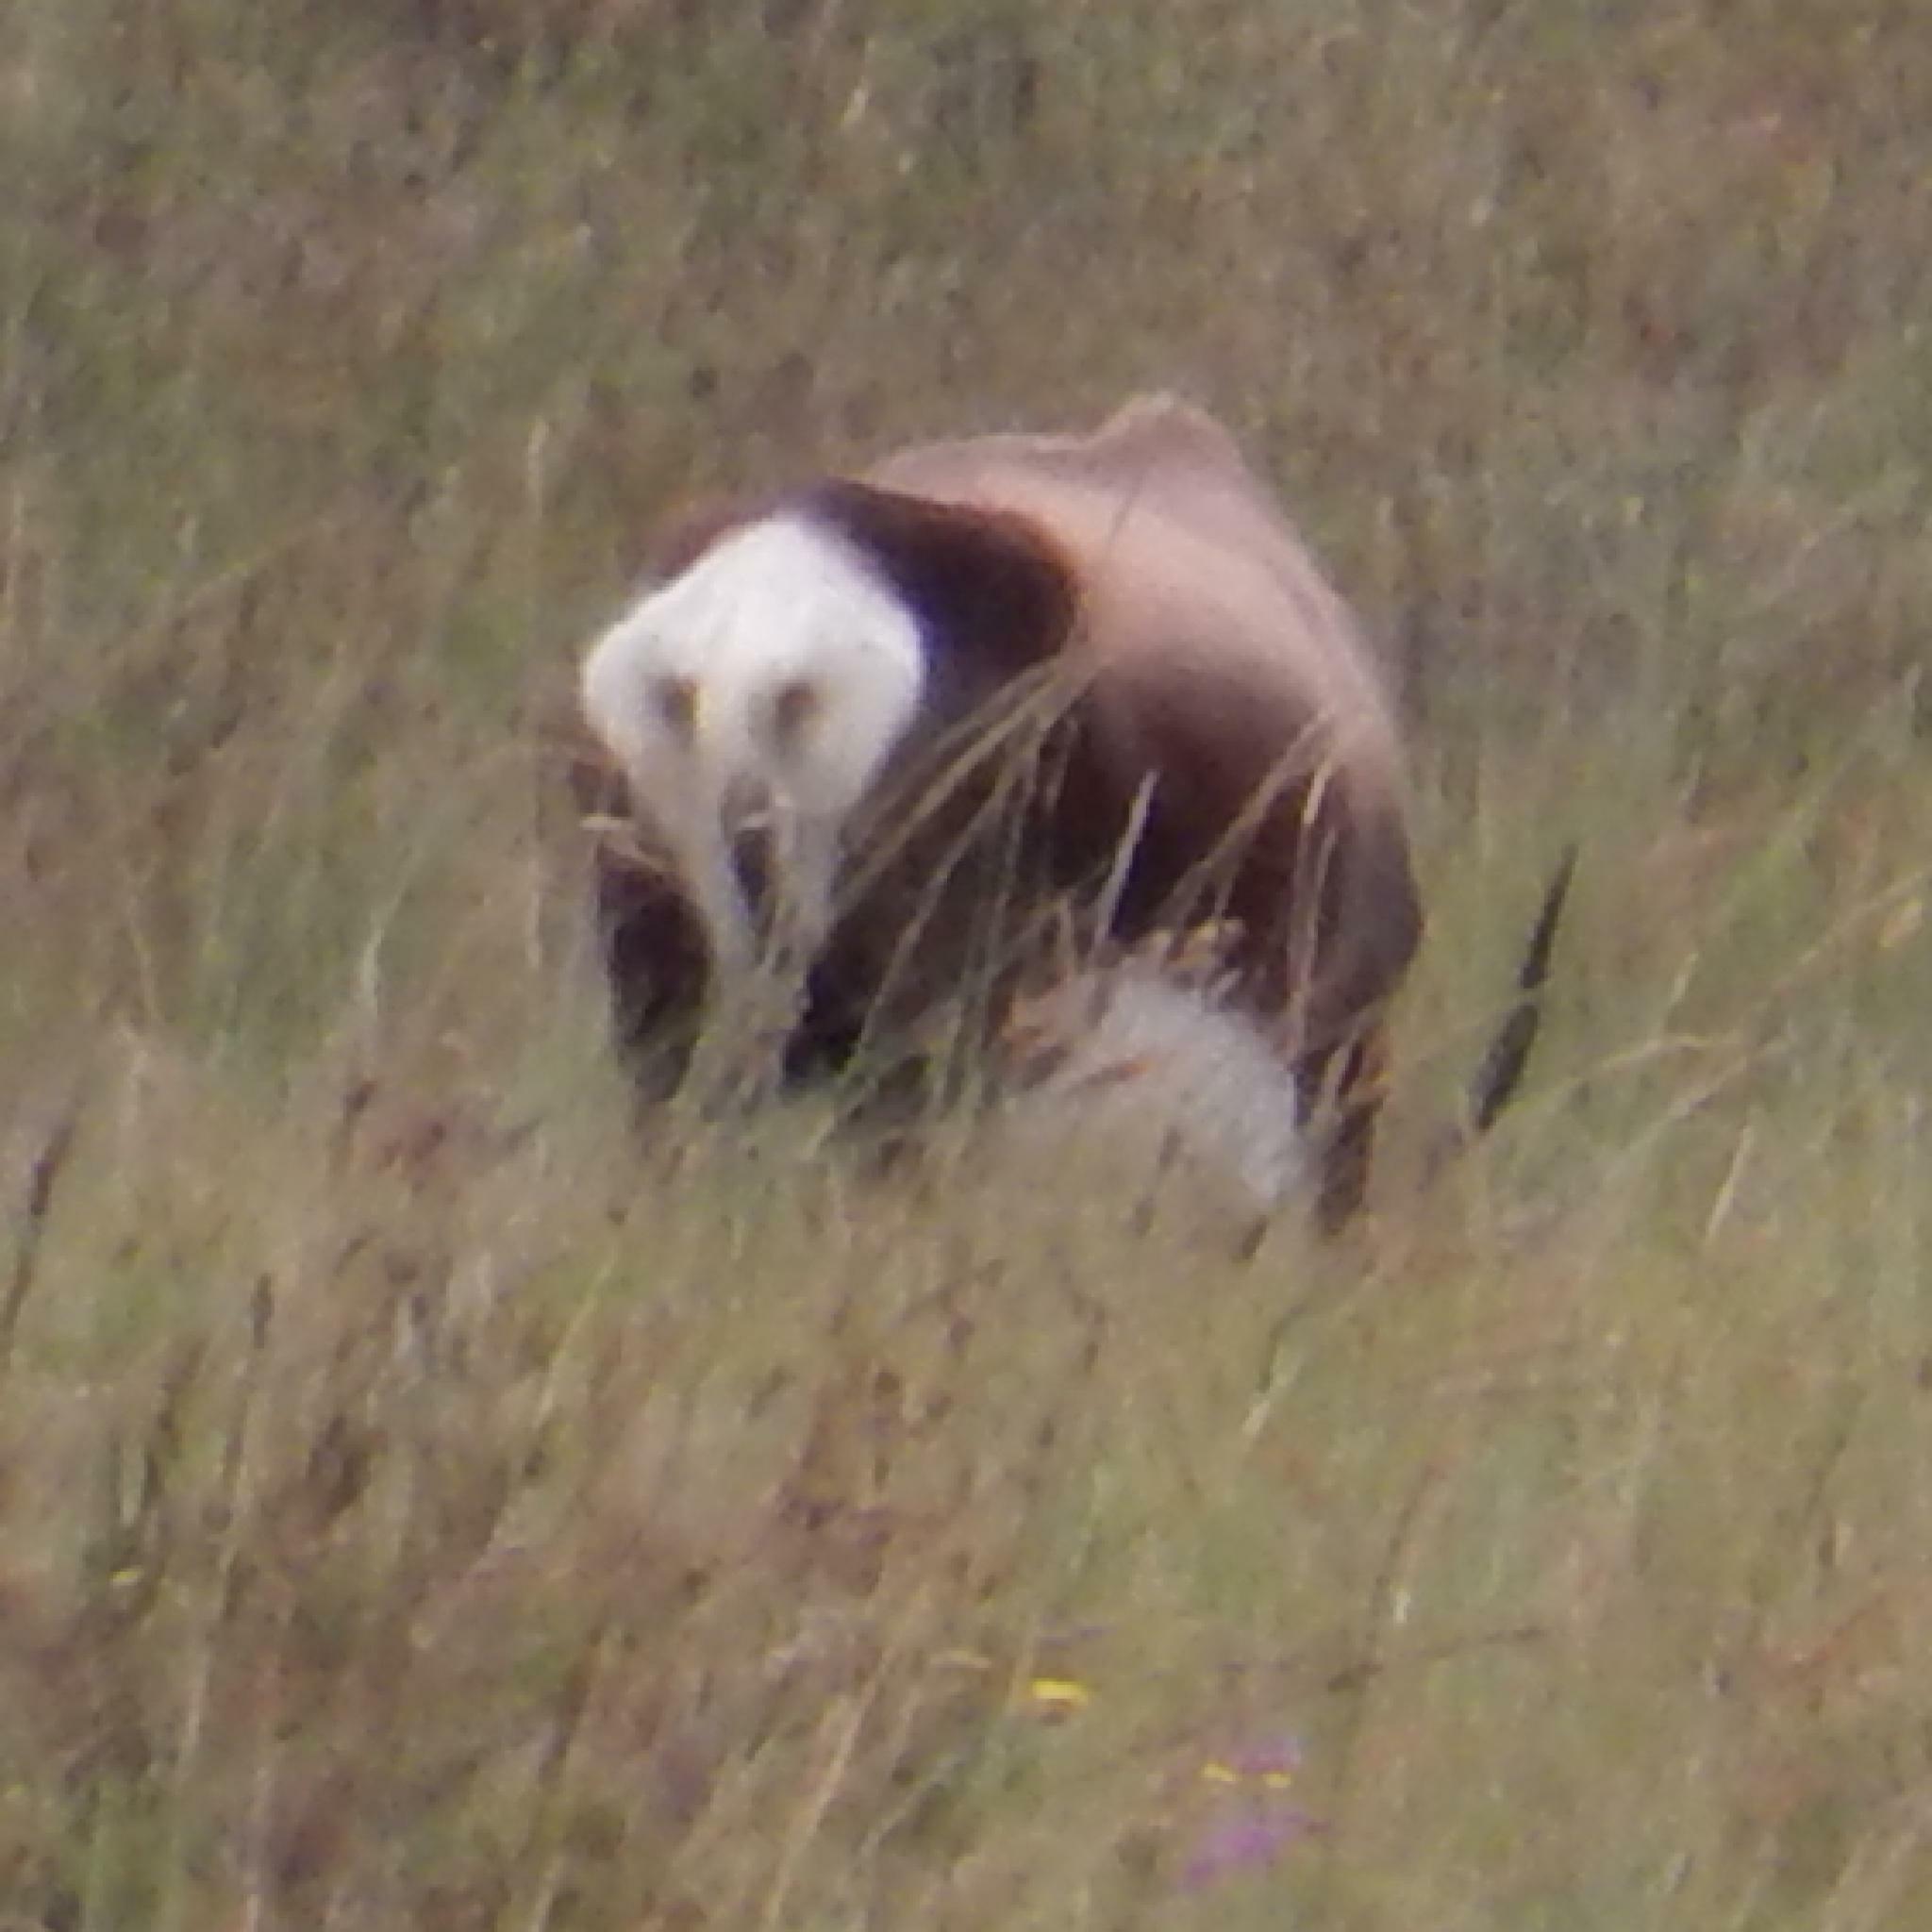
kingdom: Animalia
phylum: Chordata
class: Mammalia
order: Artiodactyla
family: Bovidae
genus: Damaliscus
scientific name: Damaliscus pygargus
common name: Bontebok
